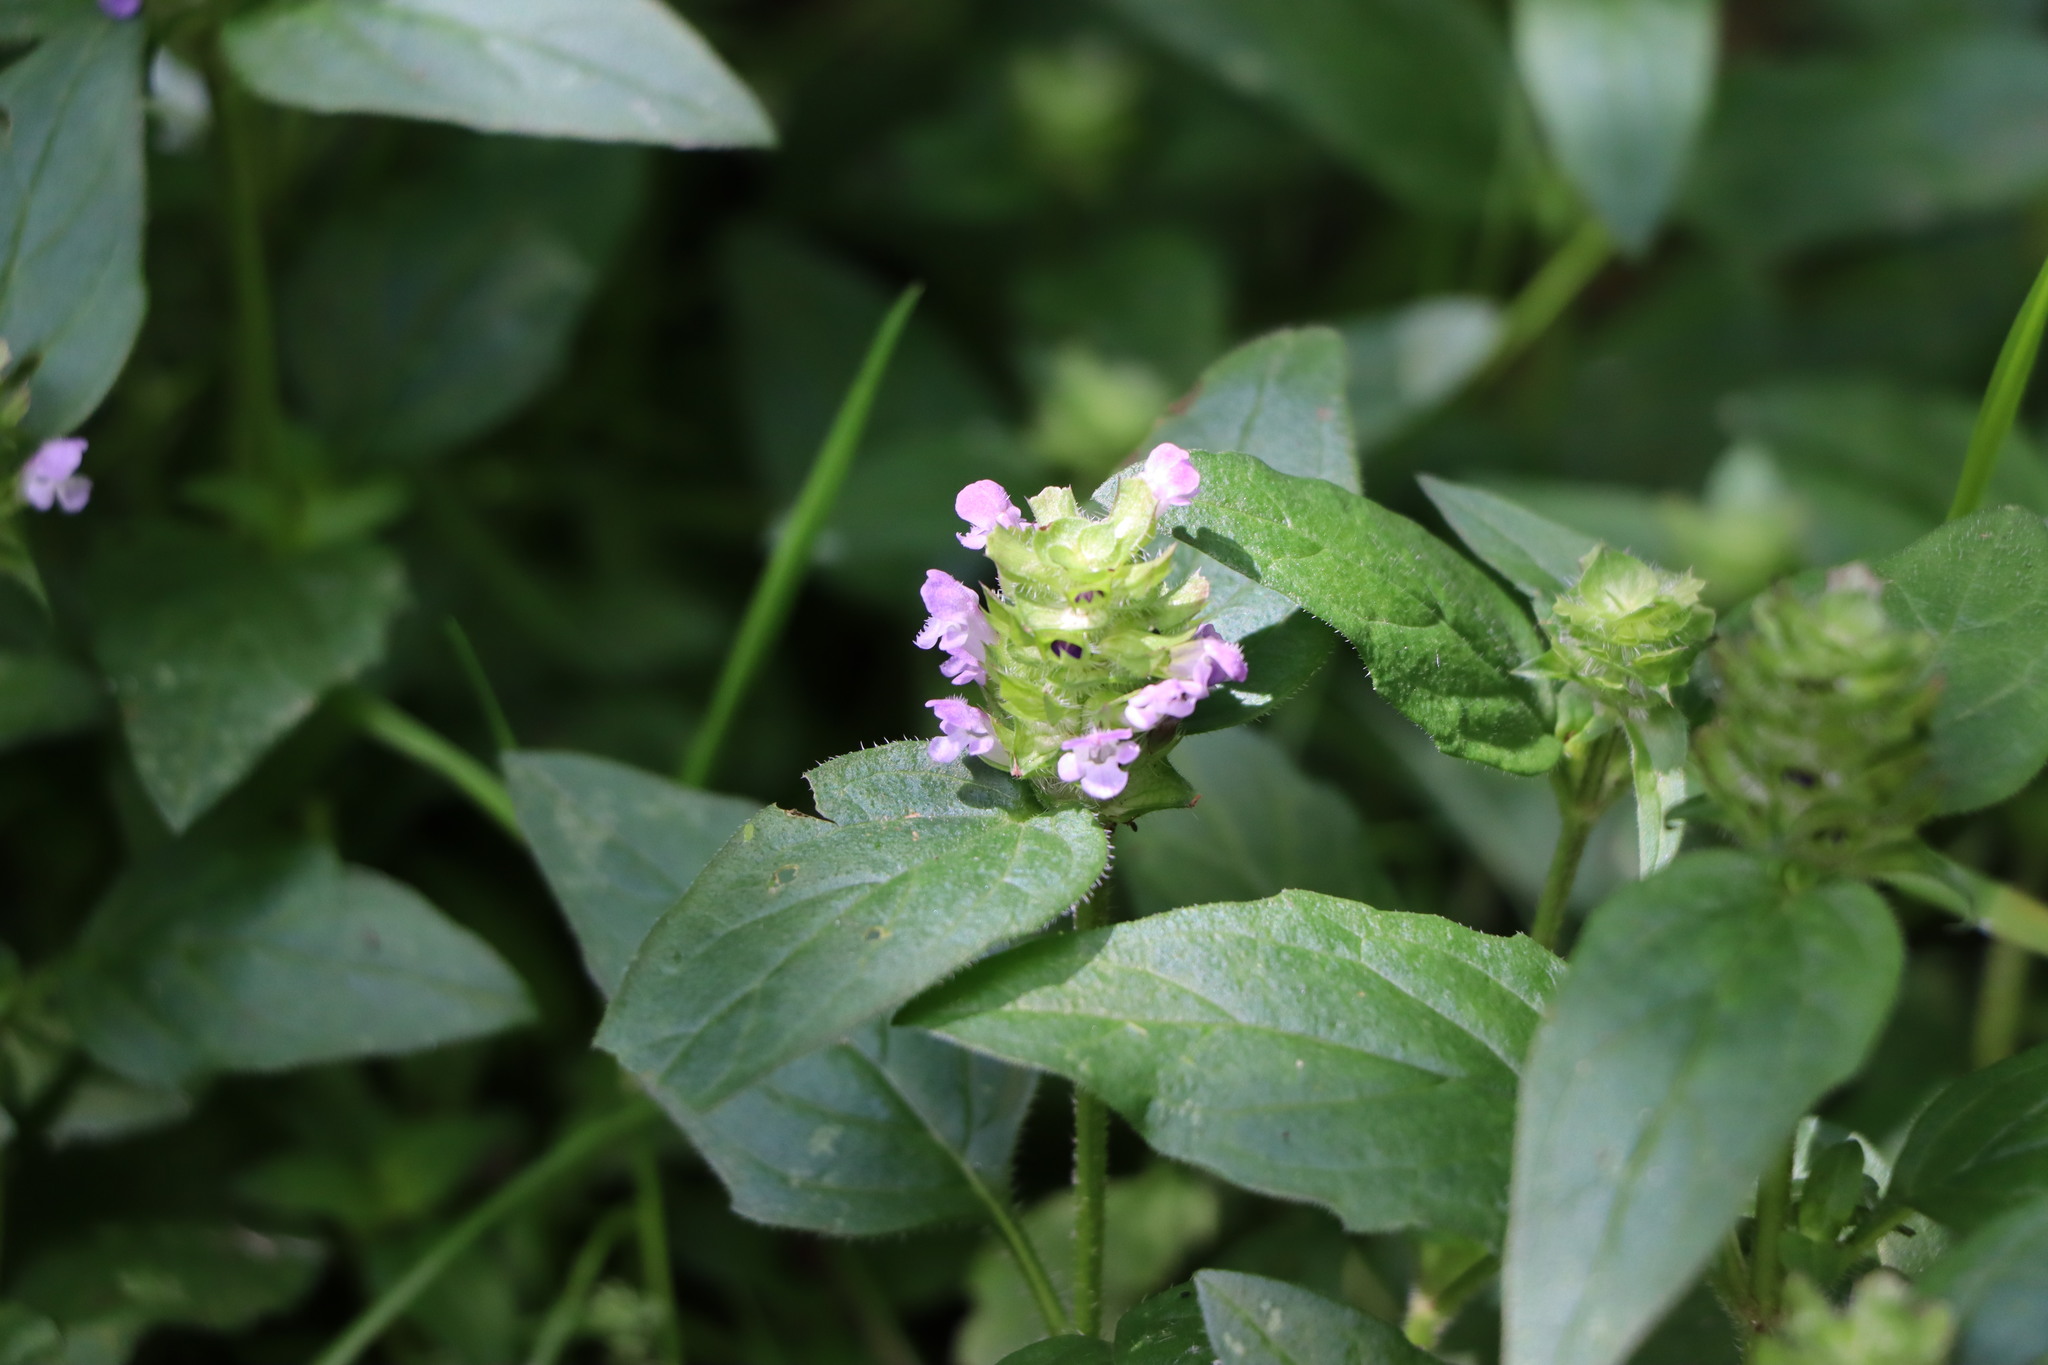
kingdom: Plantae
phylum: Tracheophyta
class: Magnoliopsida
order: Lamiales
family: Lamiaceae
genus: Prunella
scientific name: Prunella vulgaris
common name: Heal-all
